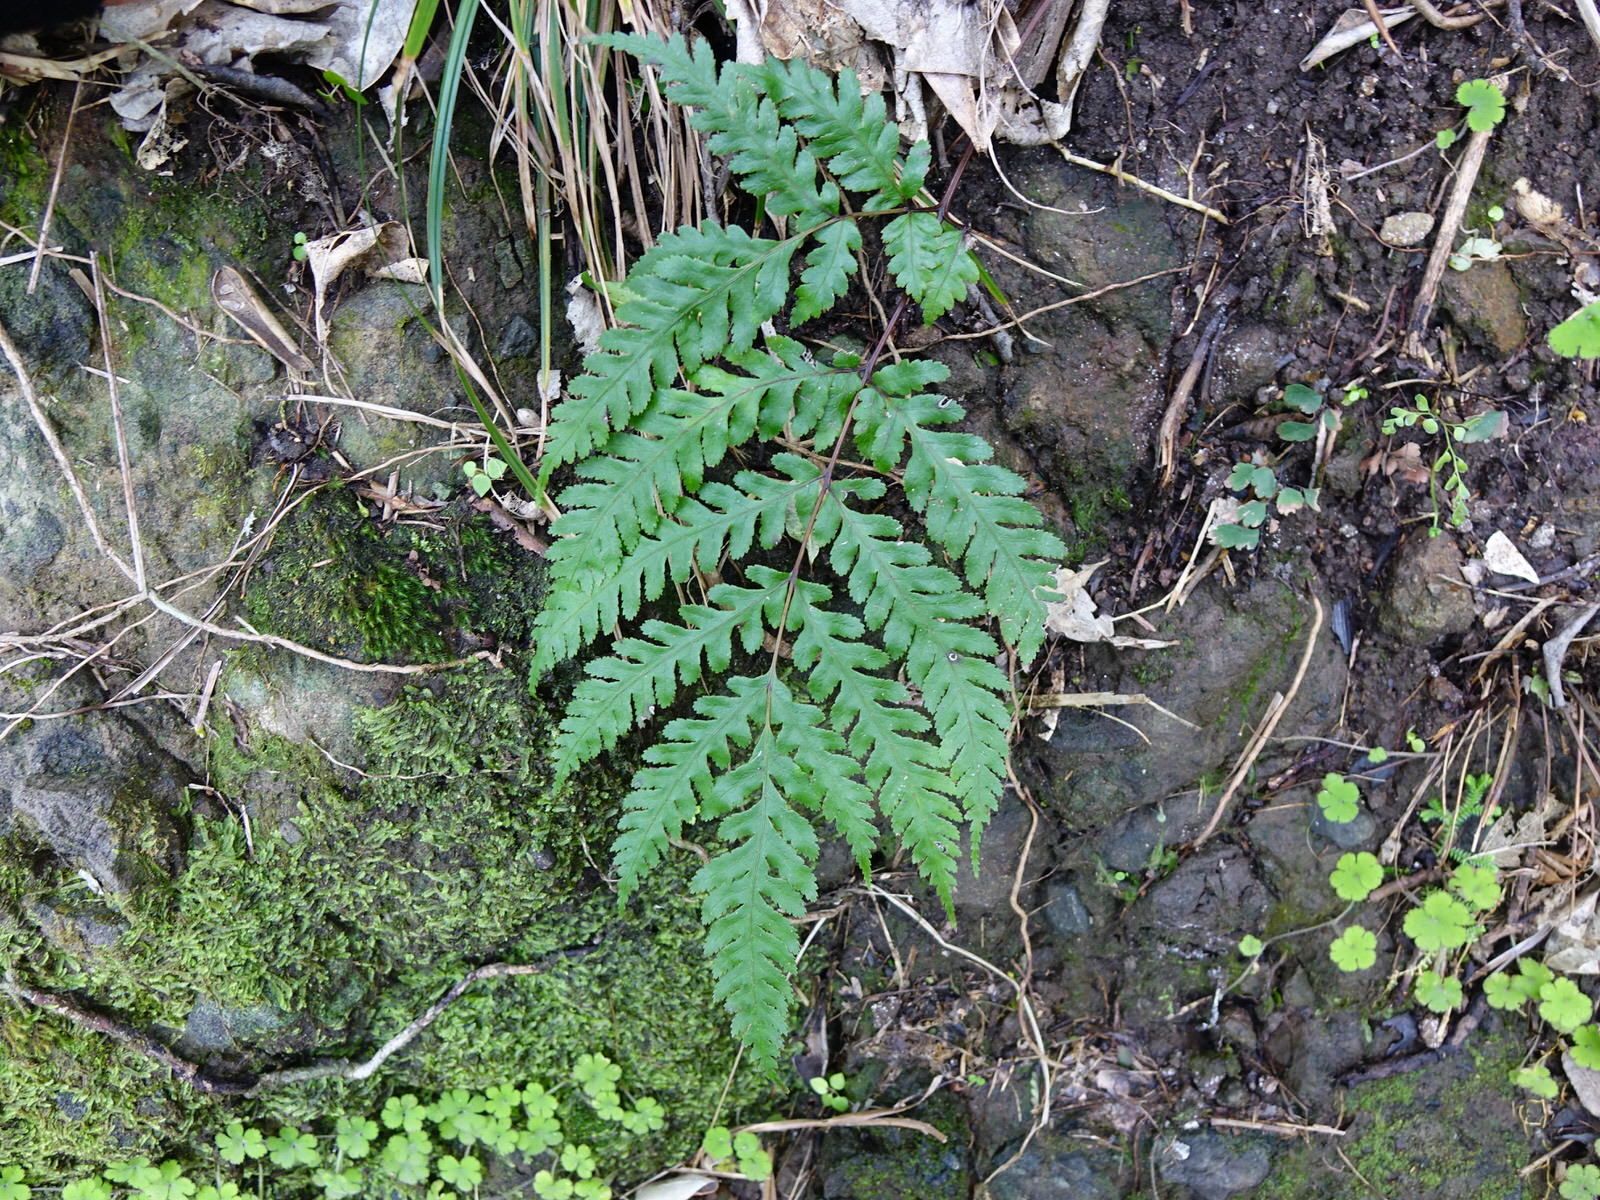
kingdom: Plantae
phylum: Tracheophyta
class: Polypodiopsida
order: Polypodiales
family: Pteridaceae
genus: Pteris
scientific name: Pteris carsei
